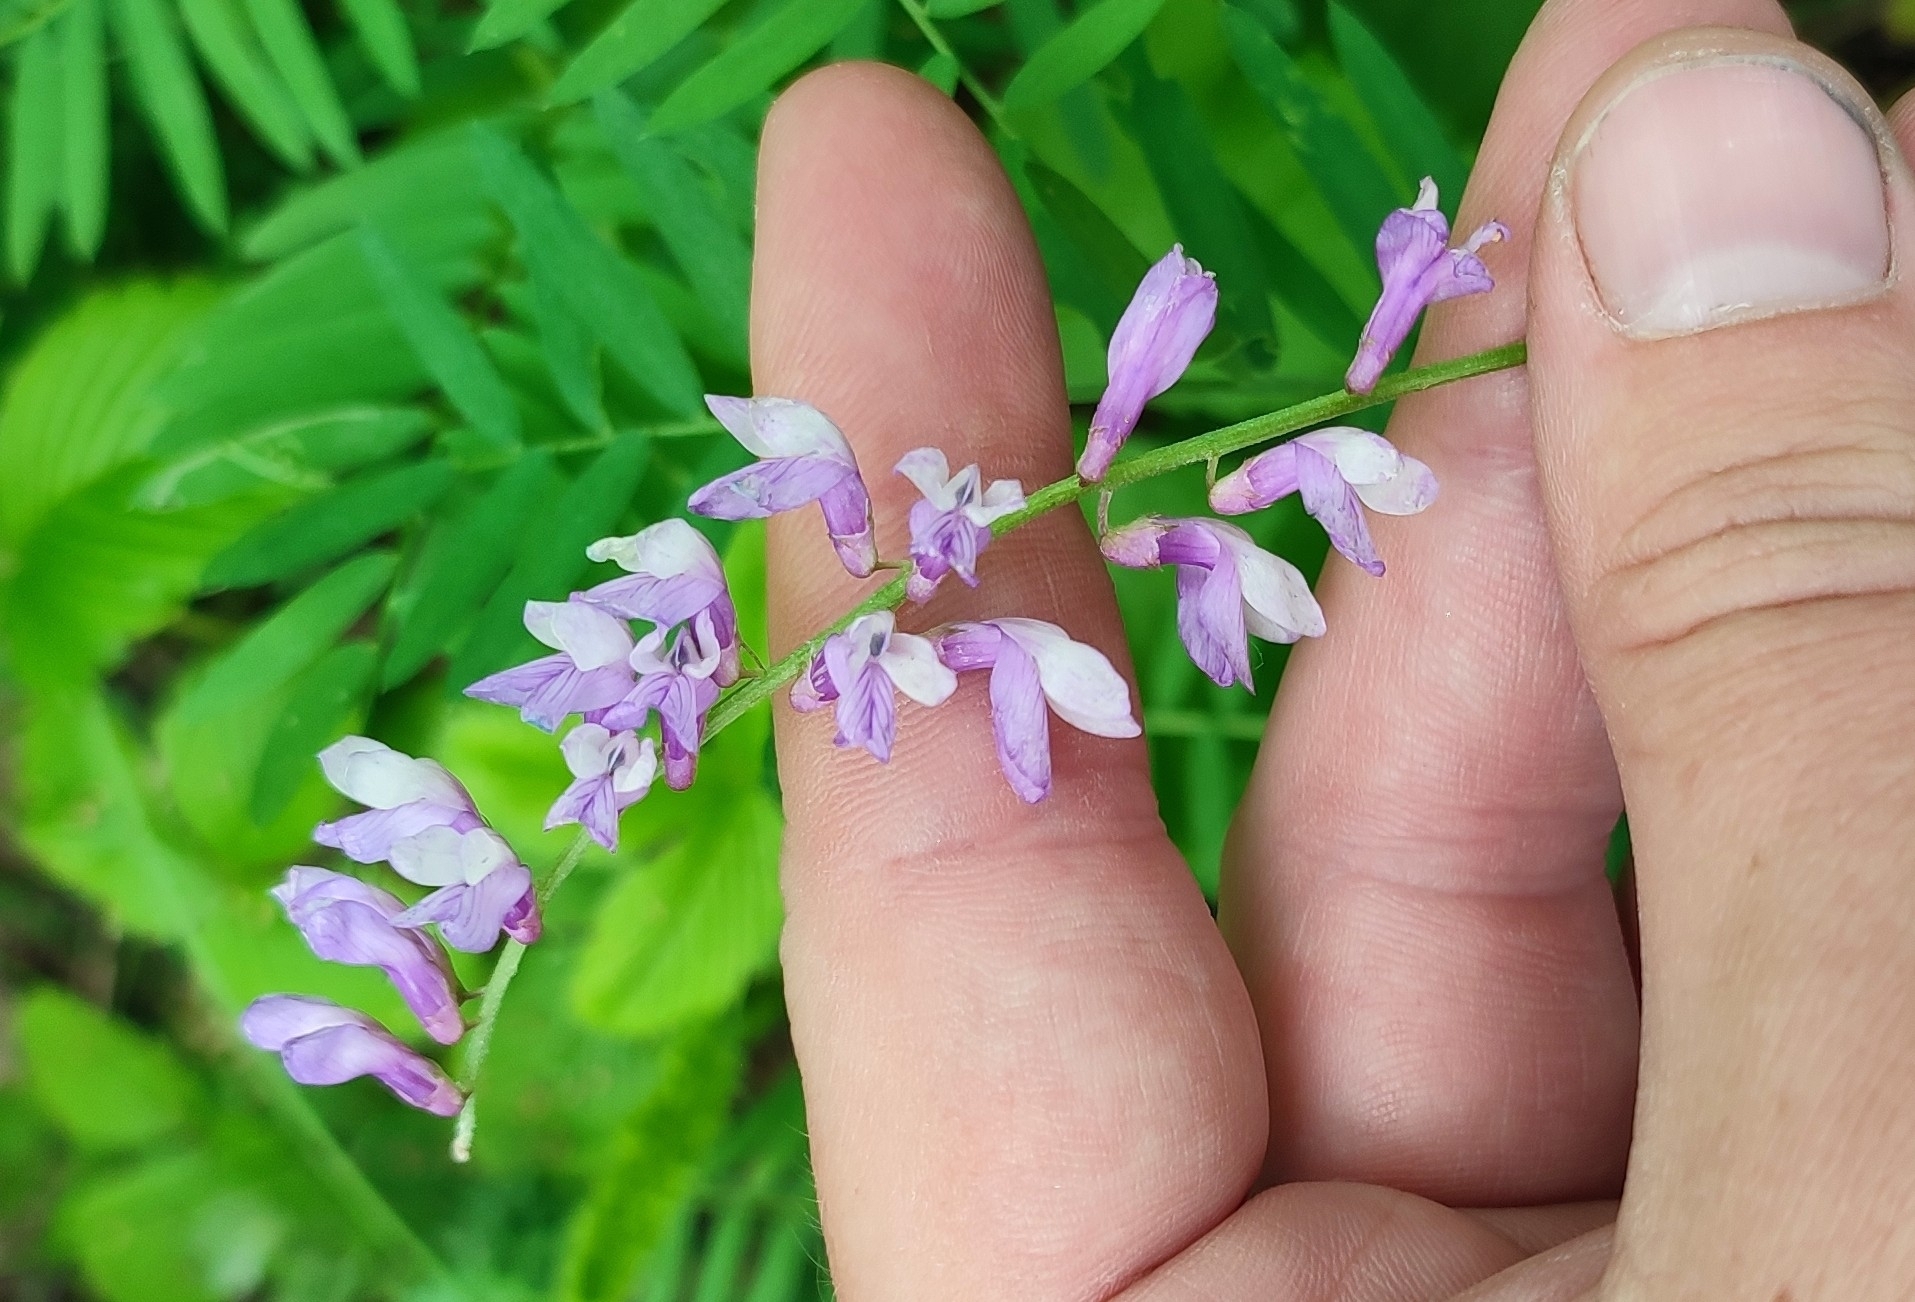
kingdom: Plantae
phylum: Tracheophyta
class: Magnoliopsida
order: Fabales
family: Fabaceae
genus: Vicia
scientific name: Vicia tenuifolia
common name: Fine-leaved vetch
